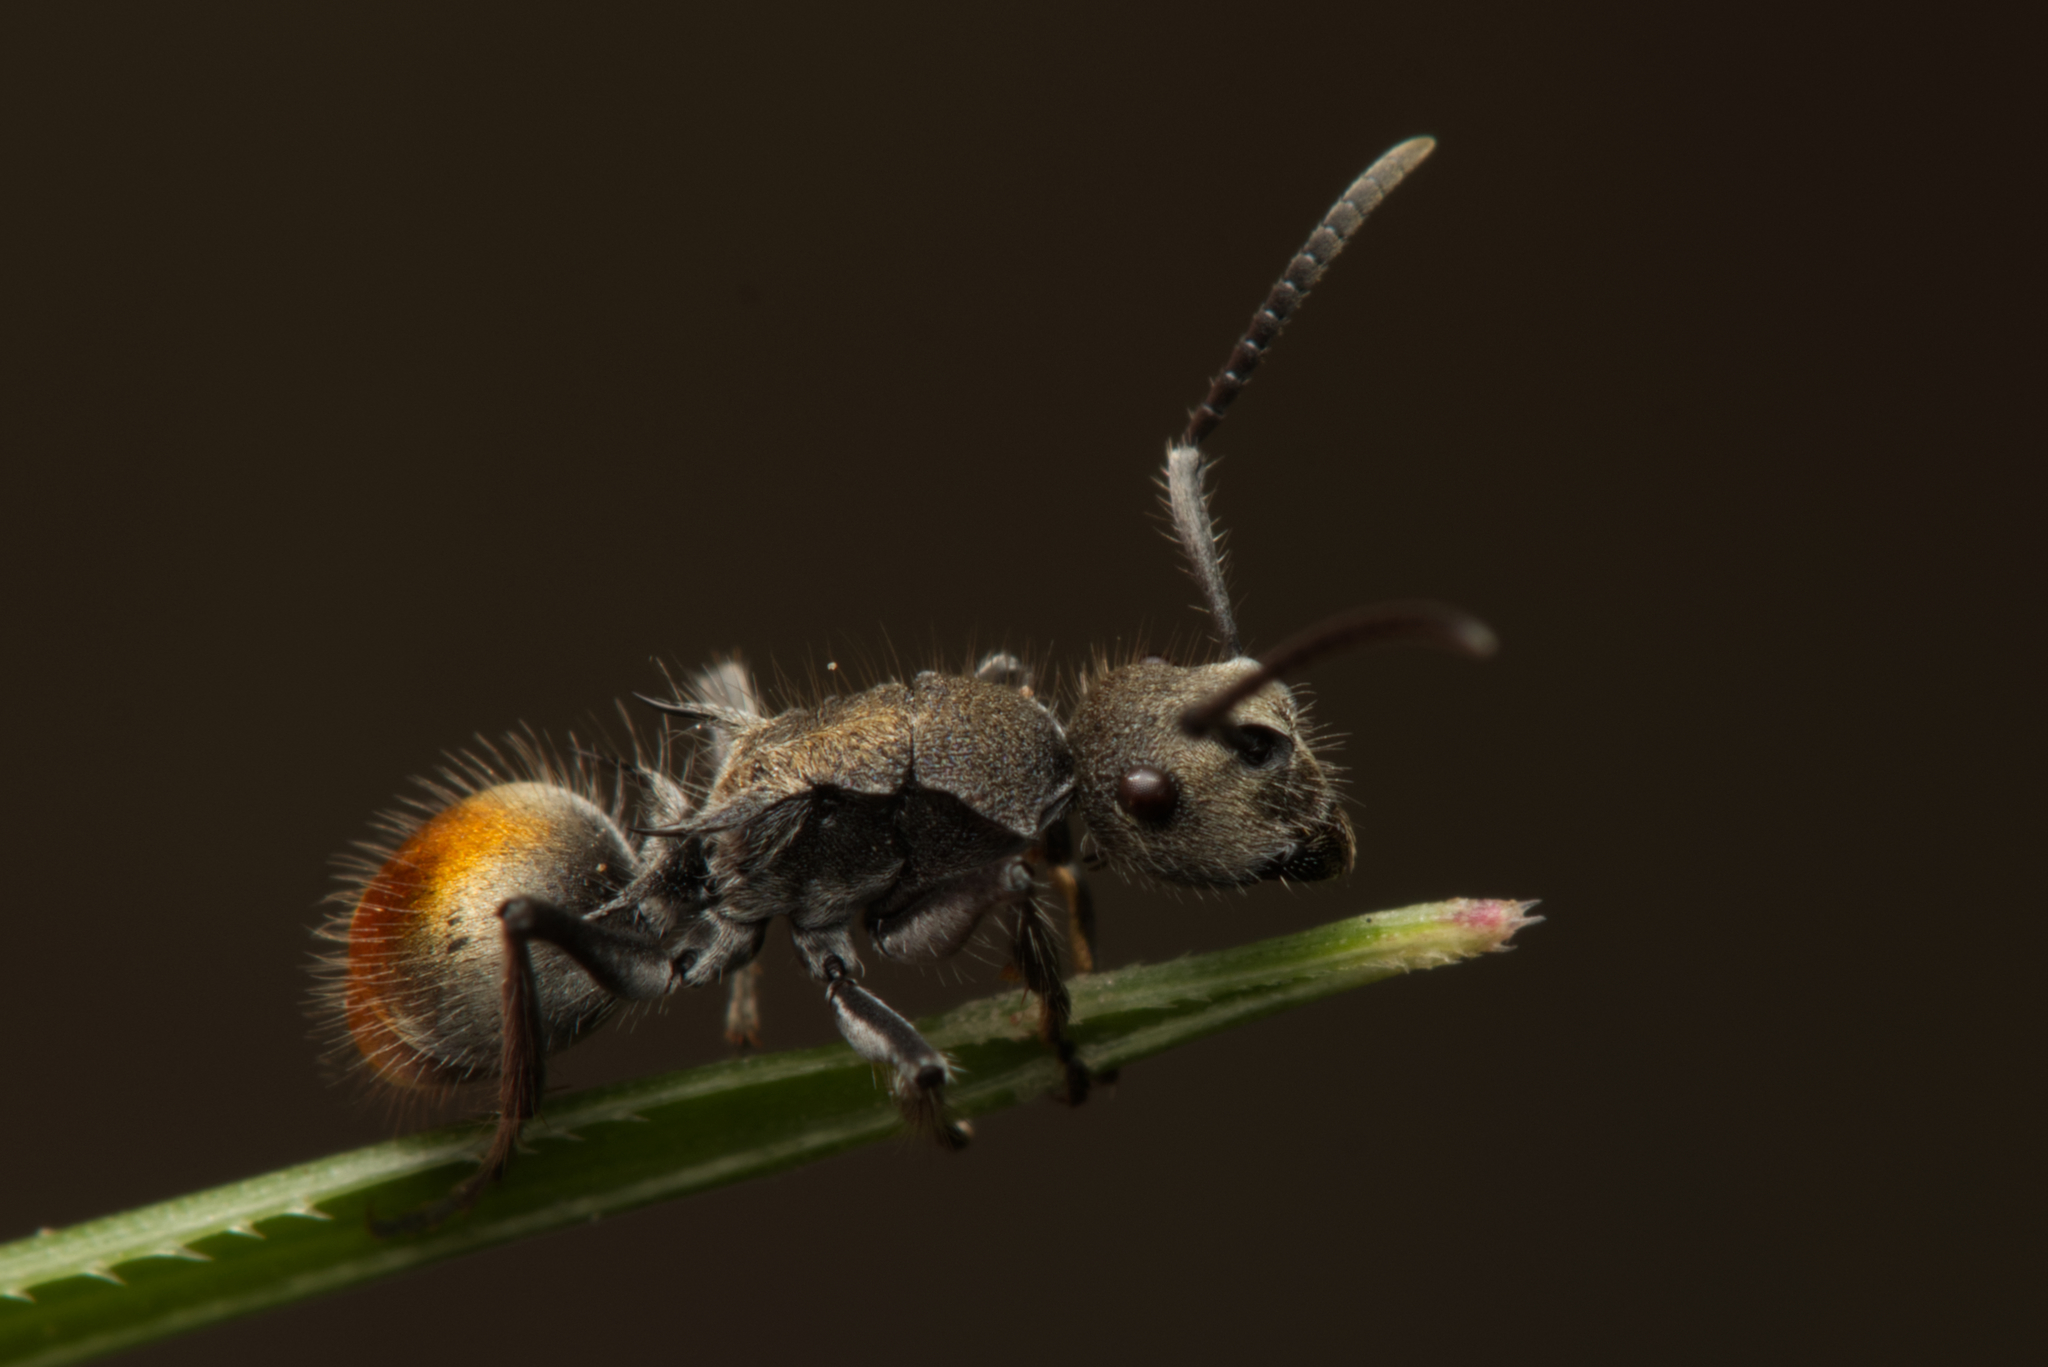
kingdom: Animalia
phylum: Arthropoda
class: Insecta
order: Hymenoptera
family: Formicidae
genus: Polyrhachis
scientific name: Polyrhachis vermiculosa
